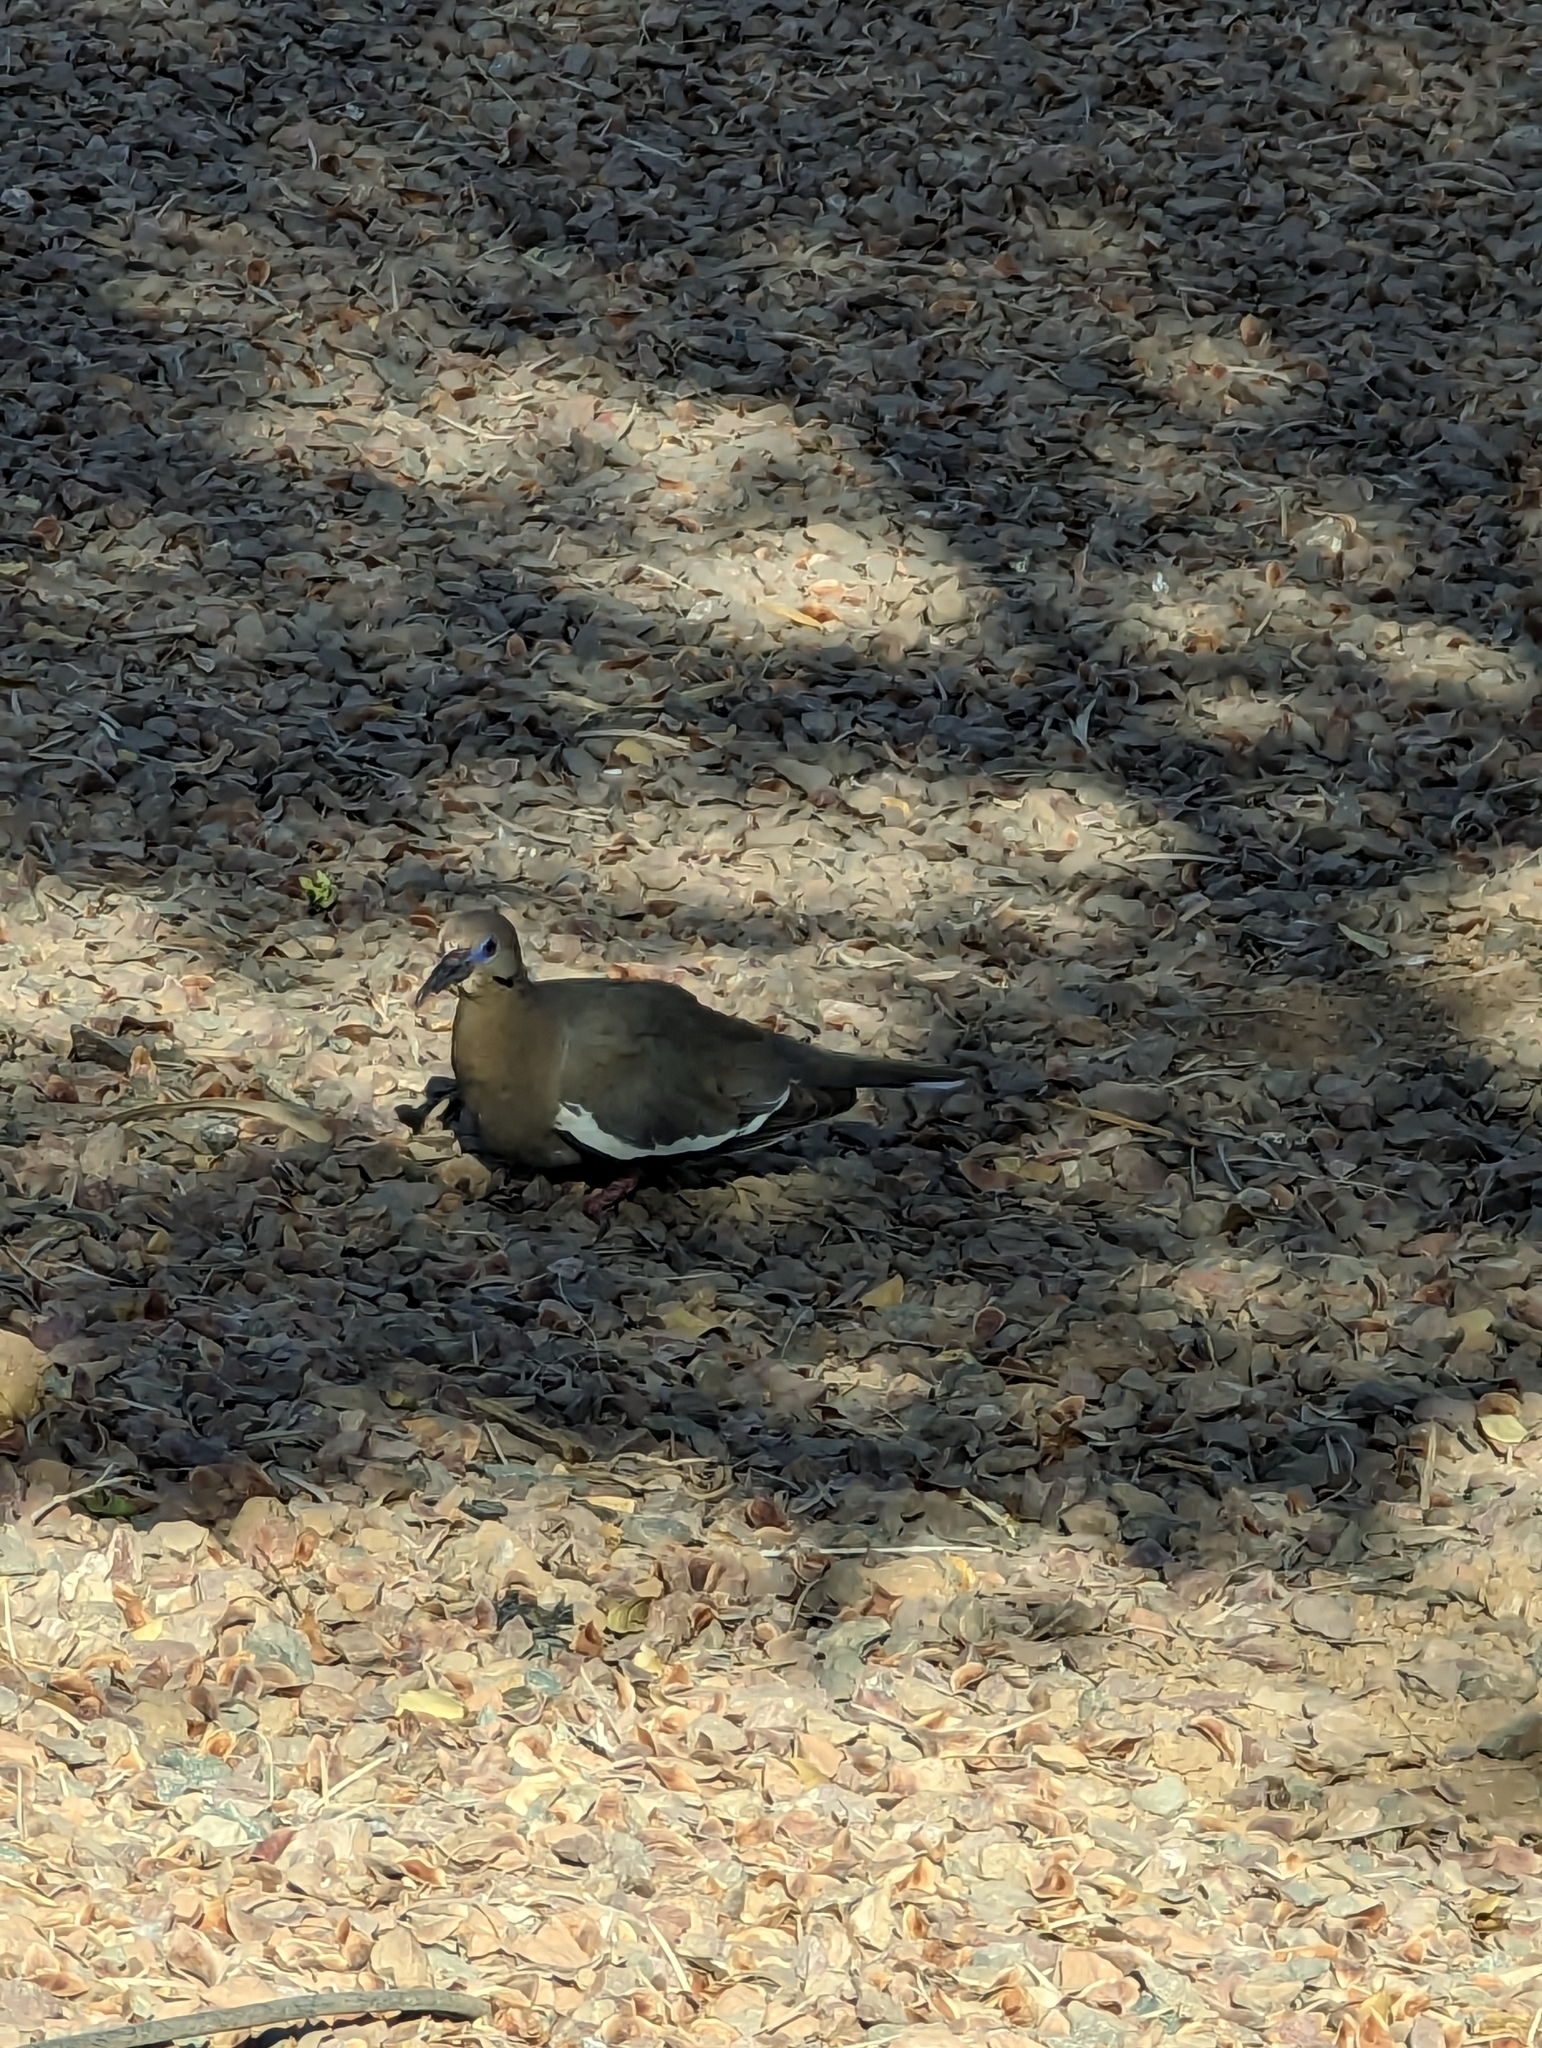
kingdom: Animalia
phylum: Chordata
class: Aves
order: Columbiformes
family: Columbidae
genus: Zenaida
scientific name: Zenaida asiatica
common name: White-winged dove
